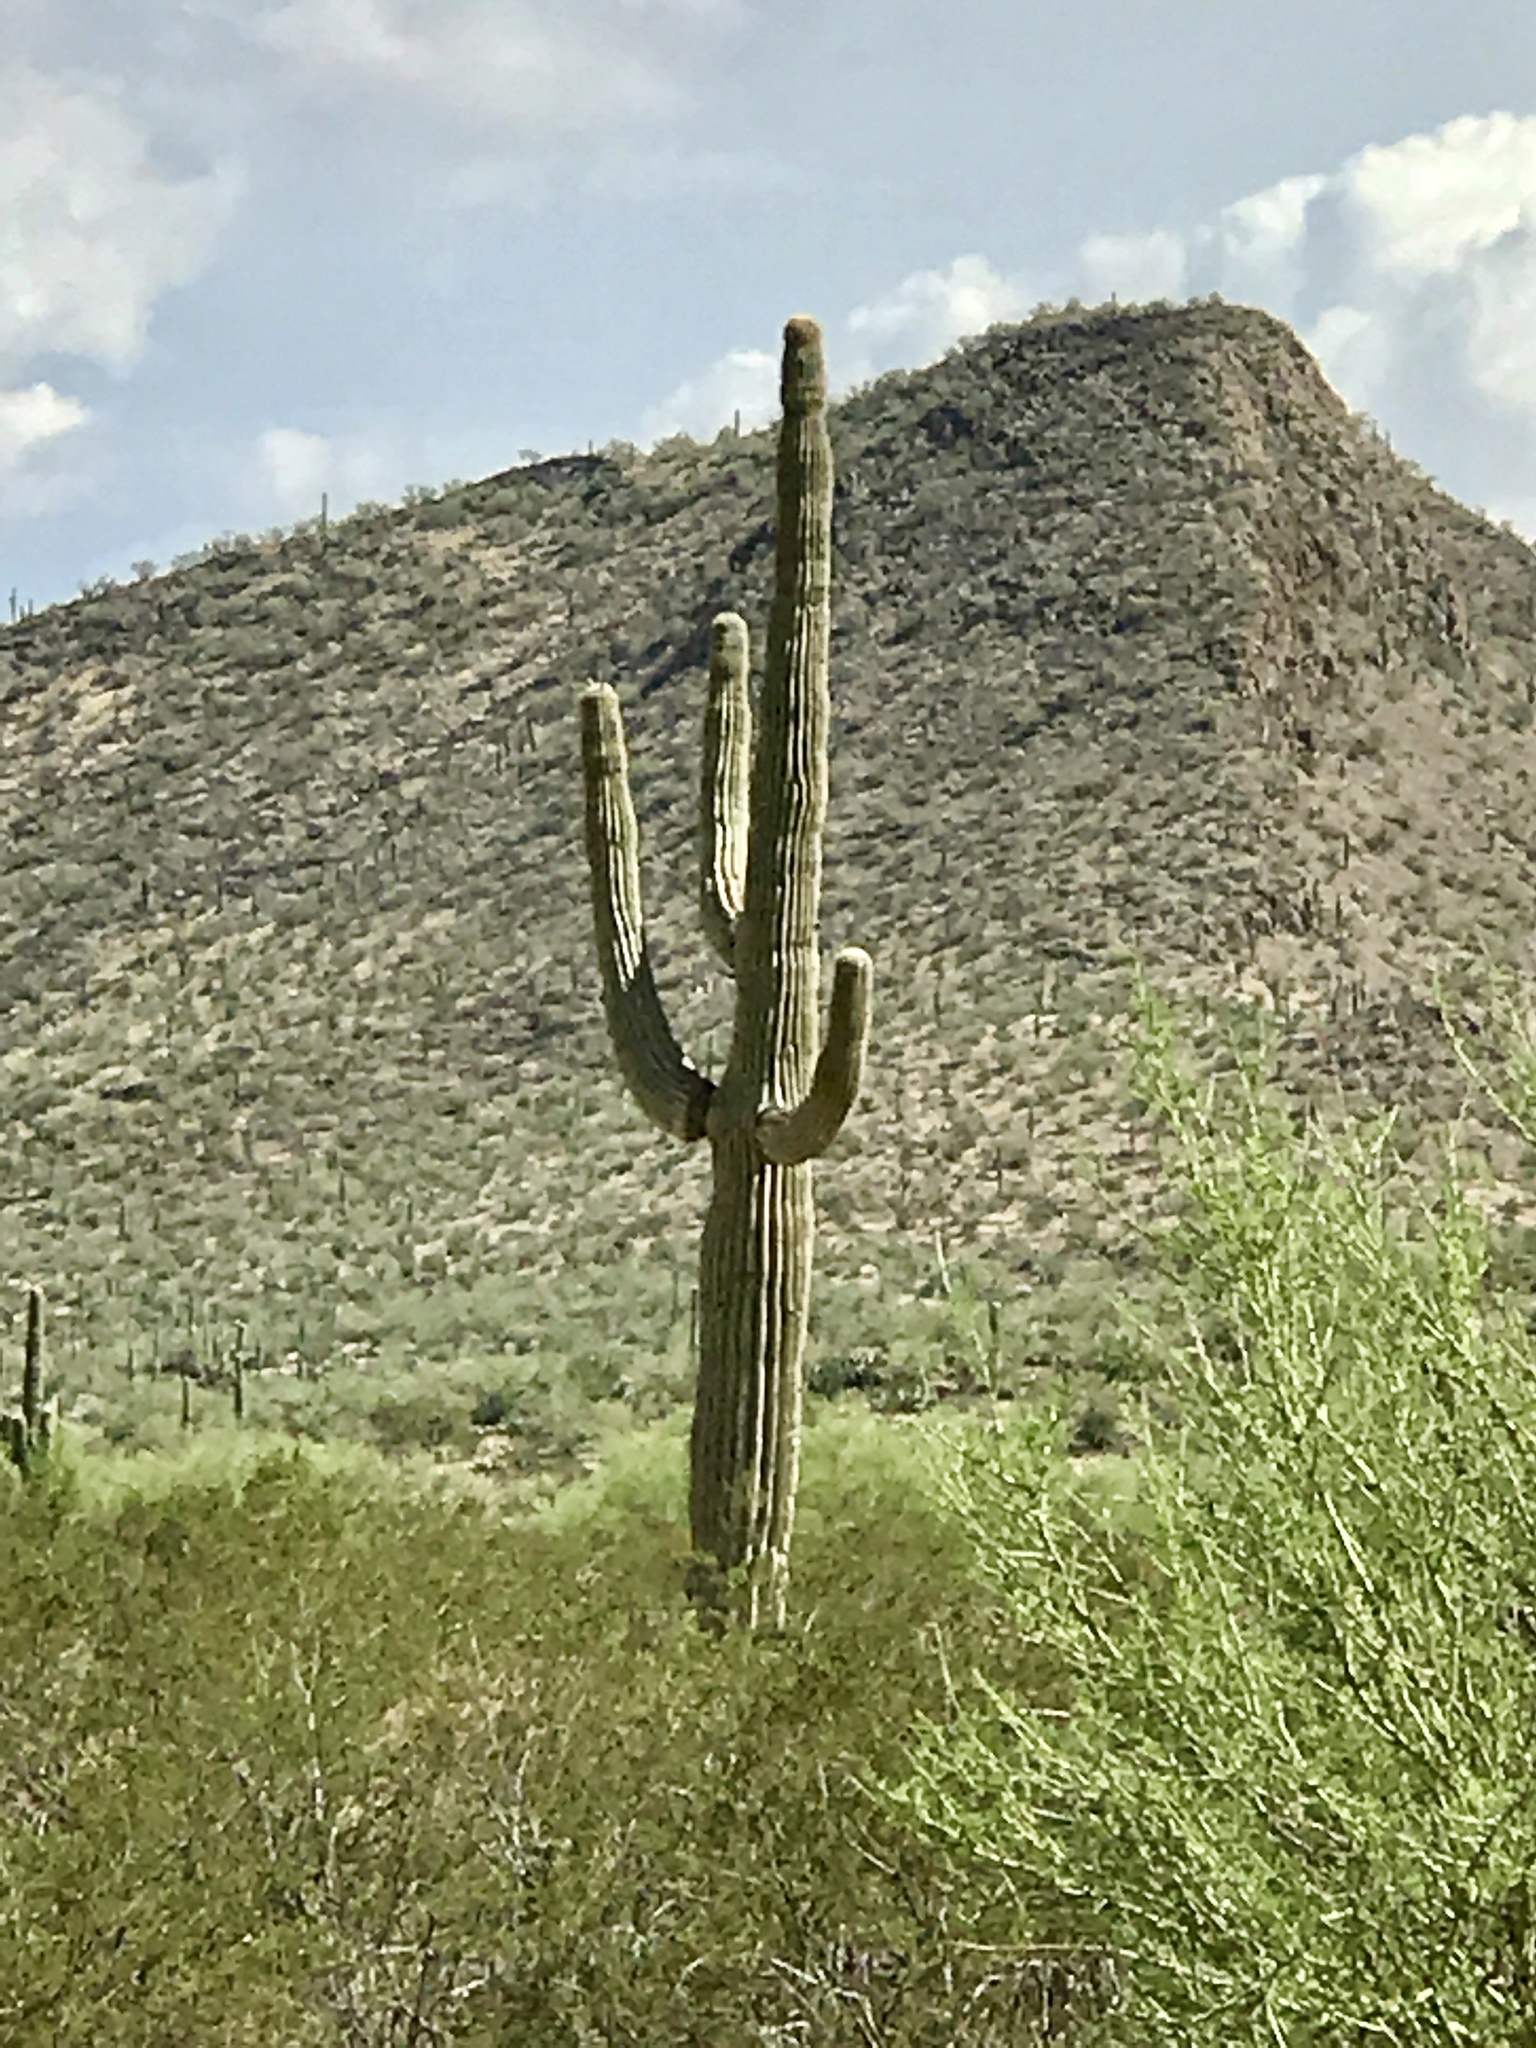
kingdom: Plantae
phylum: Tracheophyta
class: Magnoliopsida
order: Caryophyllales
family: Cactaceae
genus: Carnegiea
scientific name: Carnegiea gigantea
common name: Saguaro
